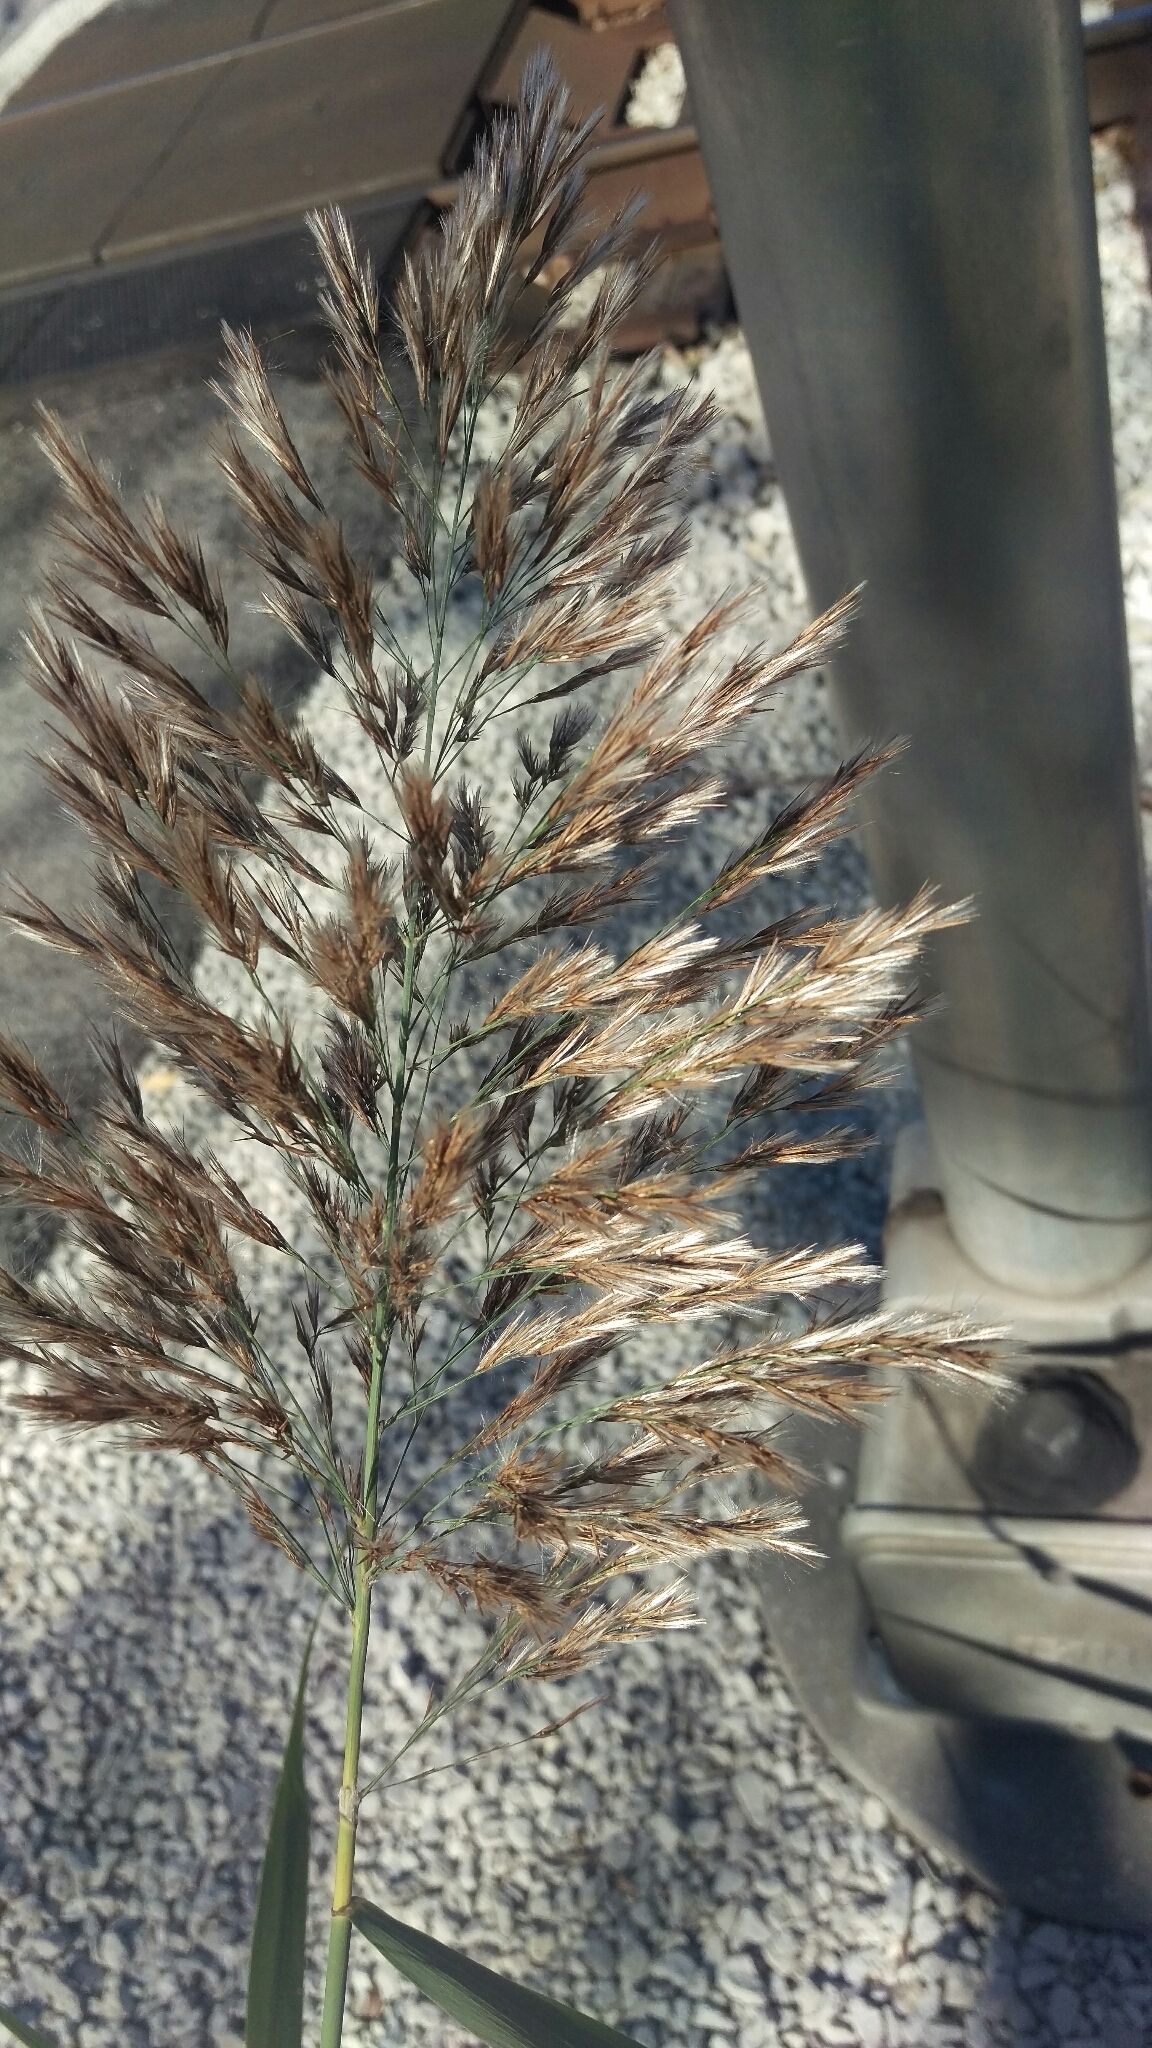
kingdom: Plantae
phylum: Tracheophyta
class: Liliopsida
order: Poales
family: Poaceae
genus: Phragmites
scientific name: Phragmites australis
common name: Common reed
